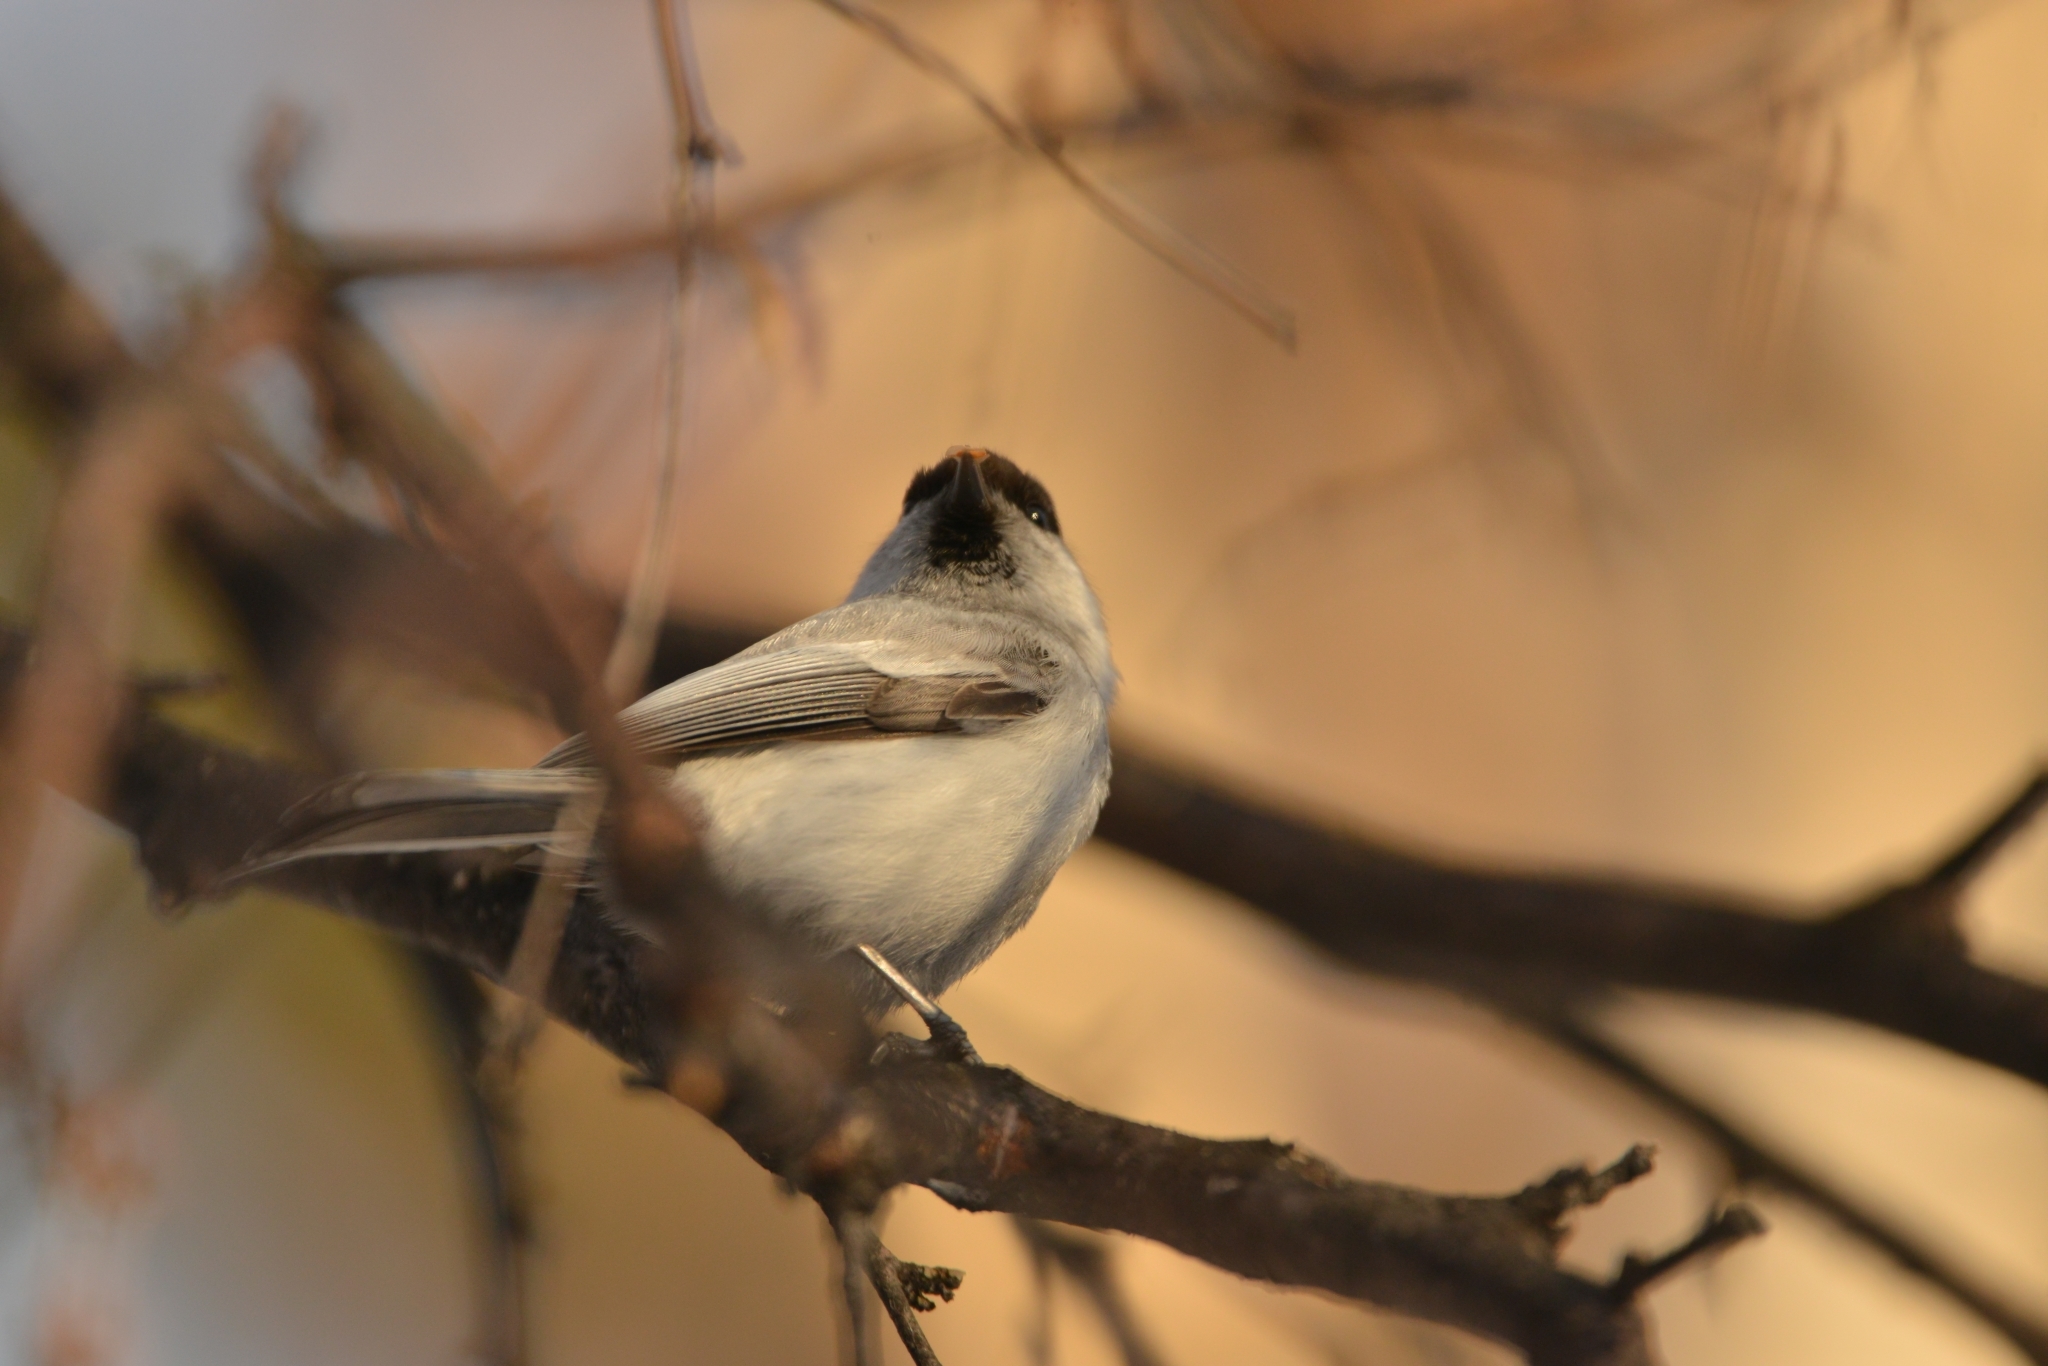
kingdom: Animalia
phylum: Chordata
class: Aves
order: Passeriformes
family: Paridae
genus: Poecile
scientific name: Poecile montanus
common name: Willow tit
